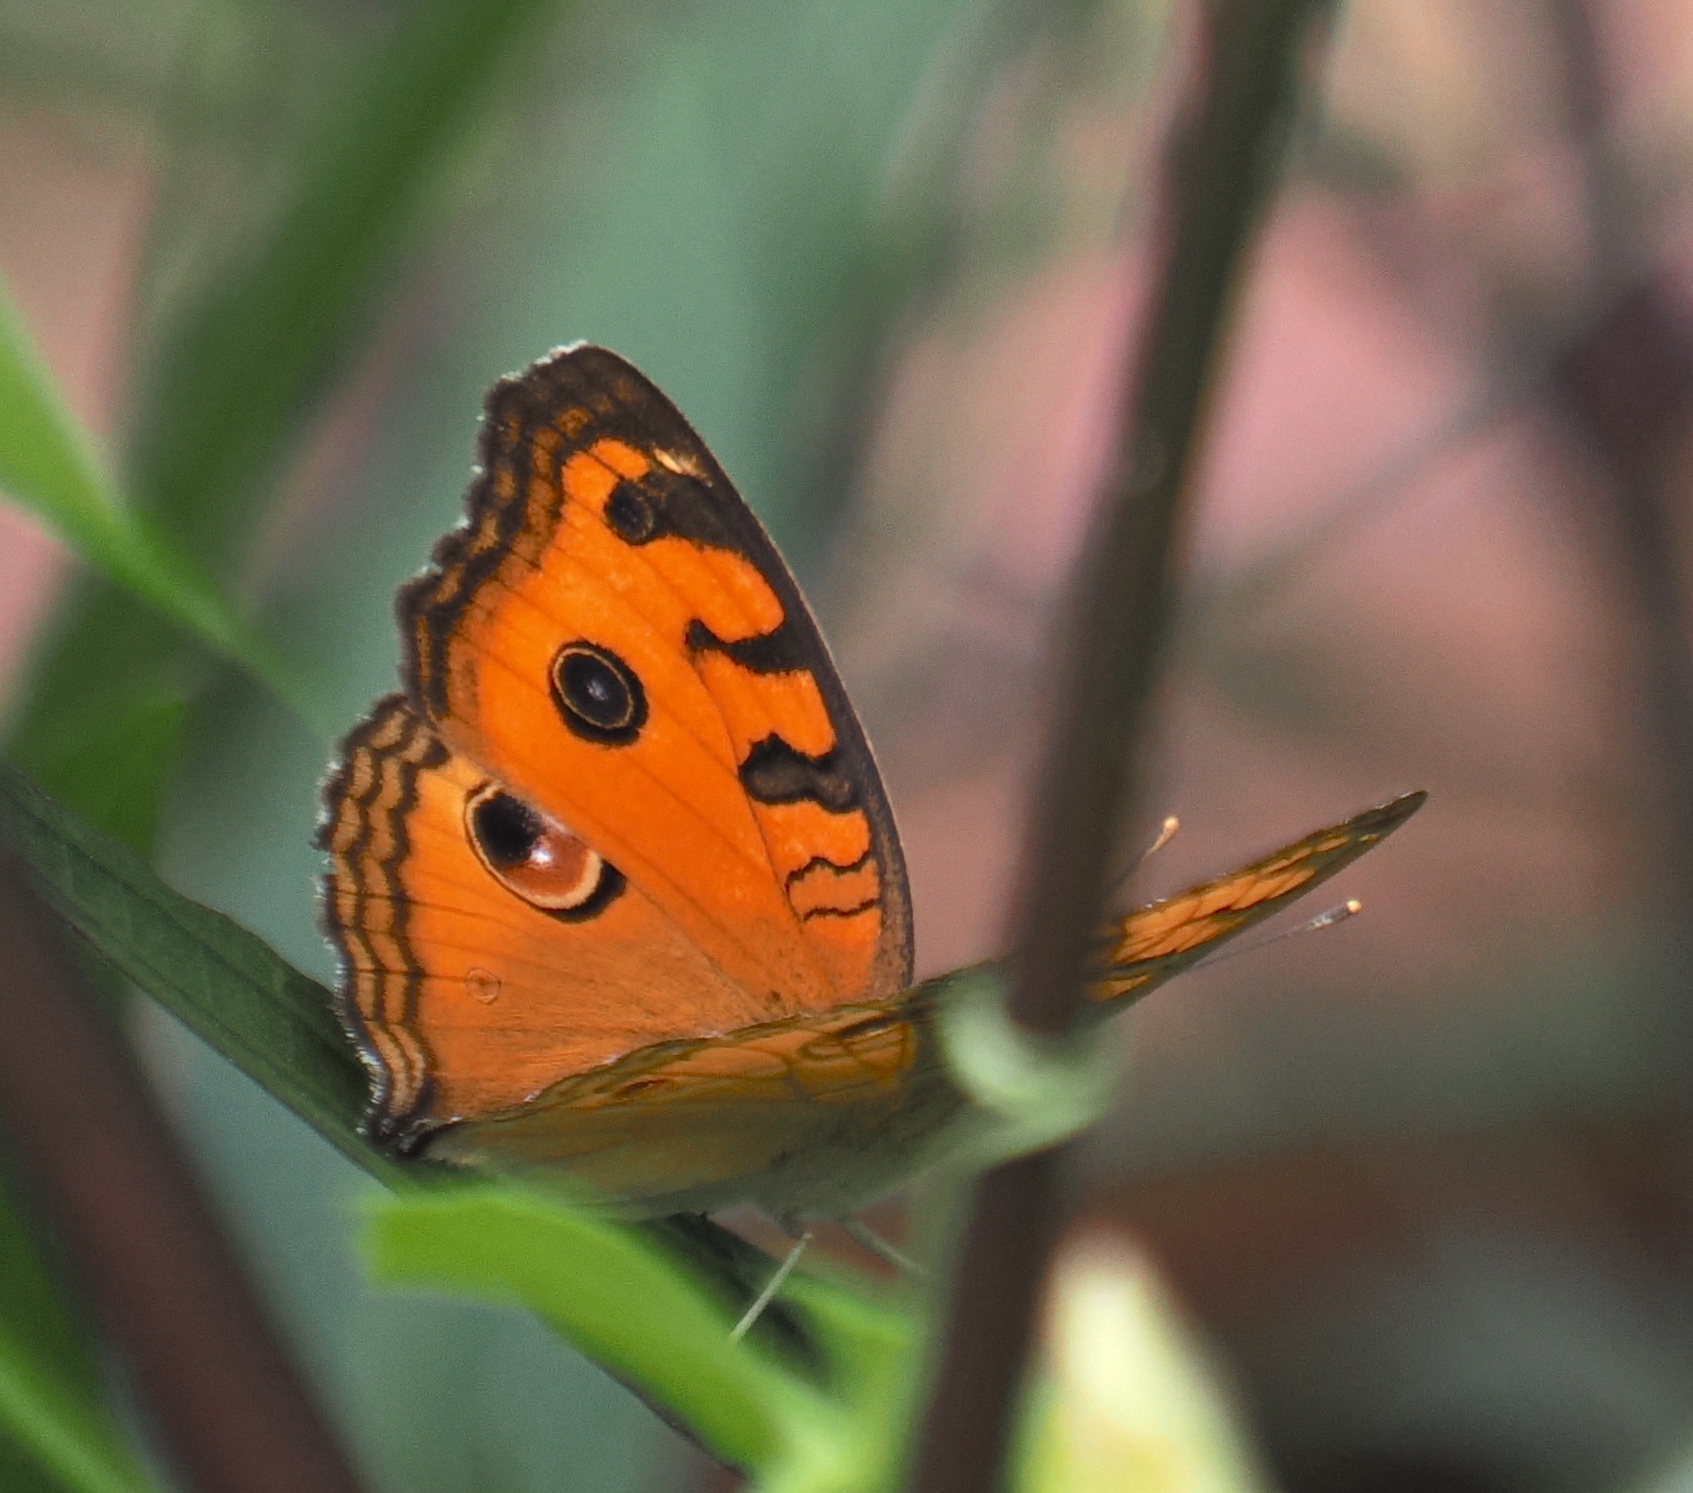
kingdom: Animalia
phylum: Arthropoda
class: Insecta
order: Lepidoptera
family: Nymphalidae
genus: Junonia
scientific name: Junonia almana
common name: Peacock pansy
